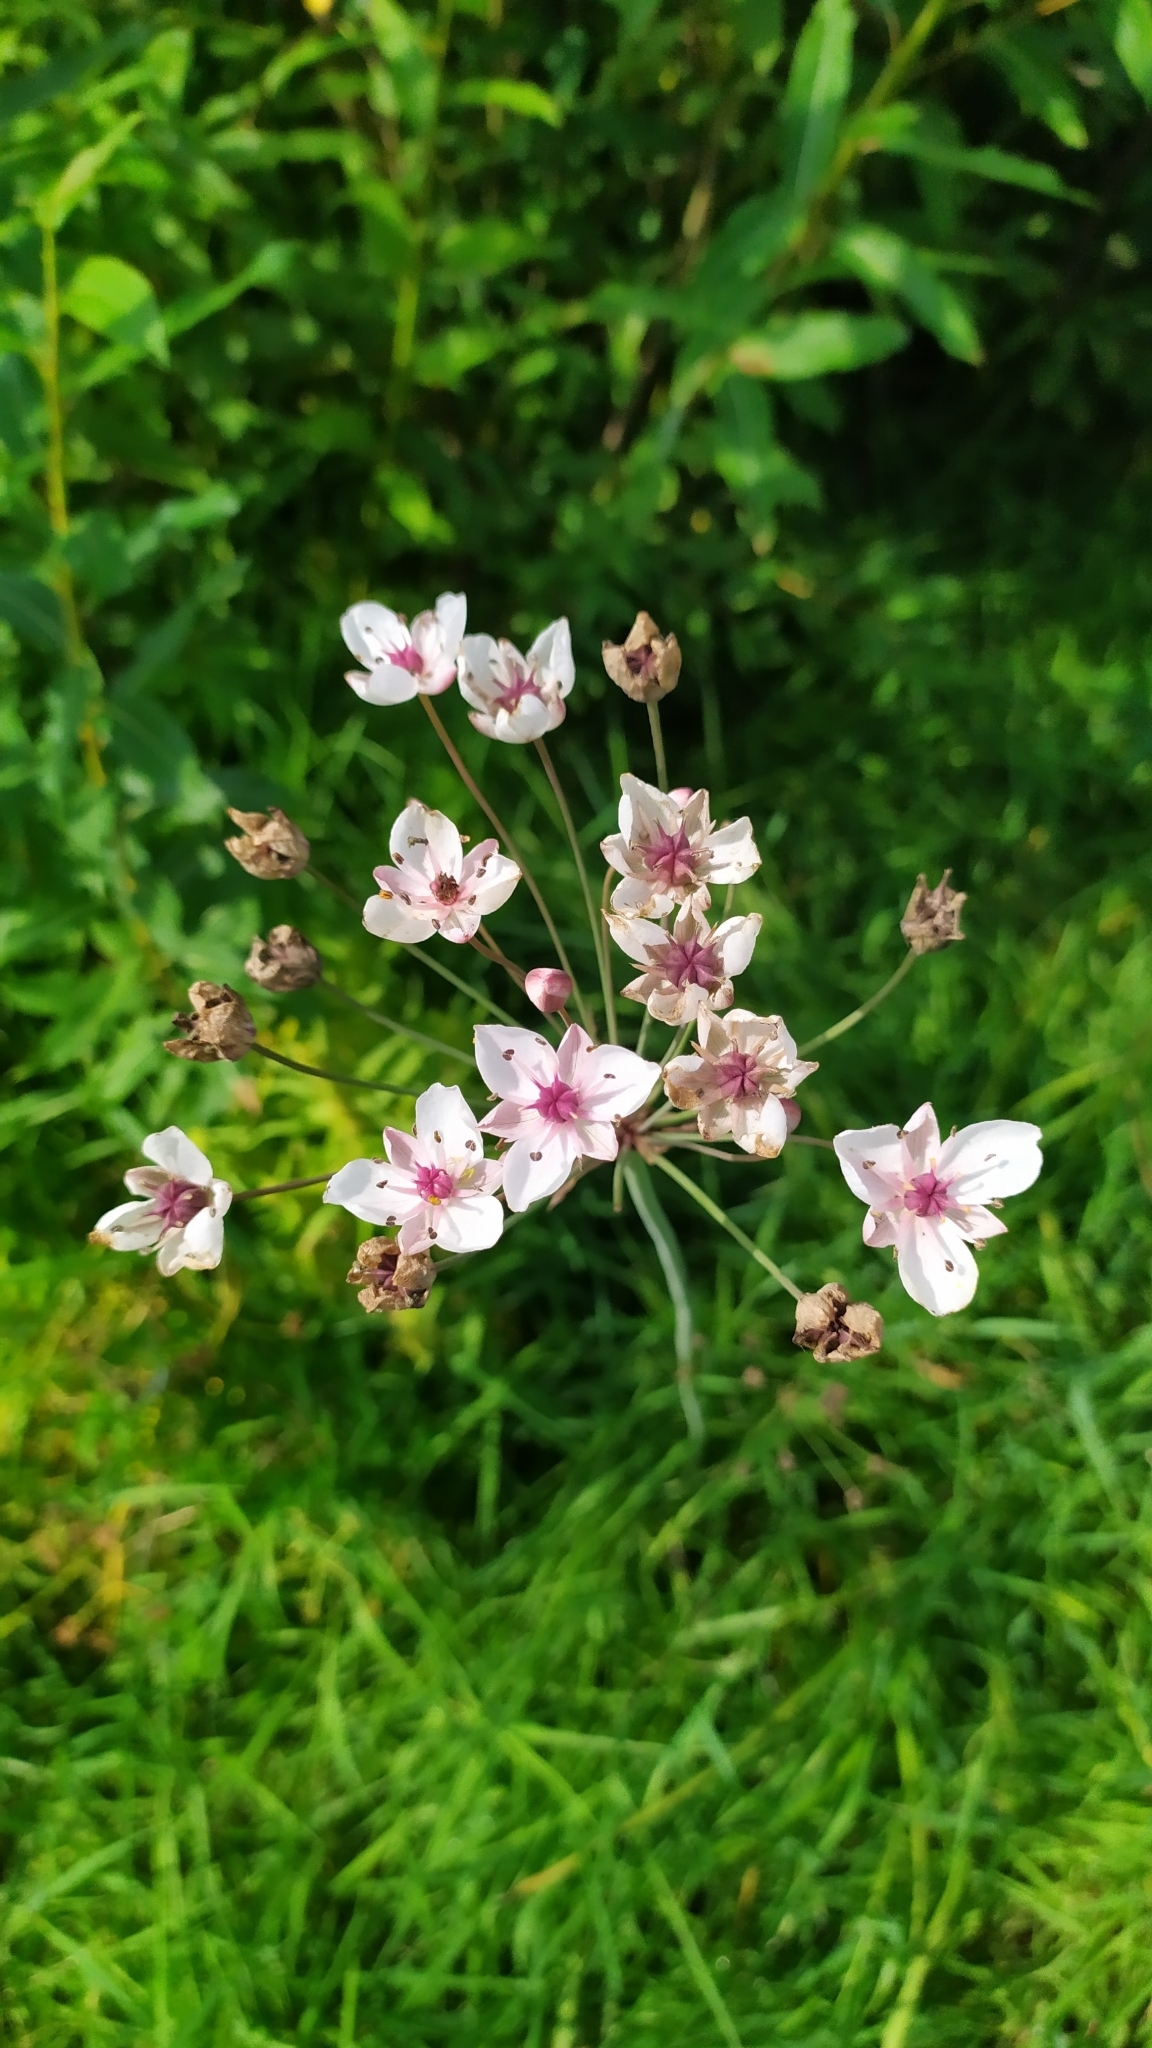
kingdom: Plantae
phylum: Tracheophyta
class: Liliopsida
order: Alismatales
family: Butomaceae
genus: Butomus
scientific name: Butomus umbellatus
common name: Flowering-rush
